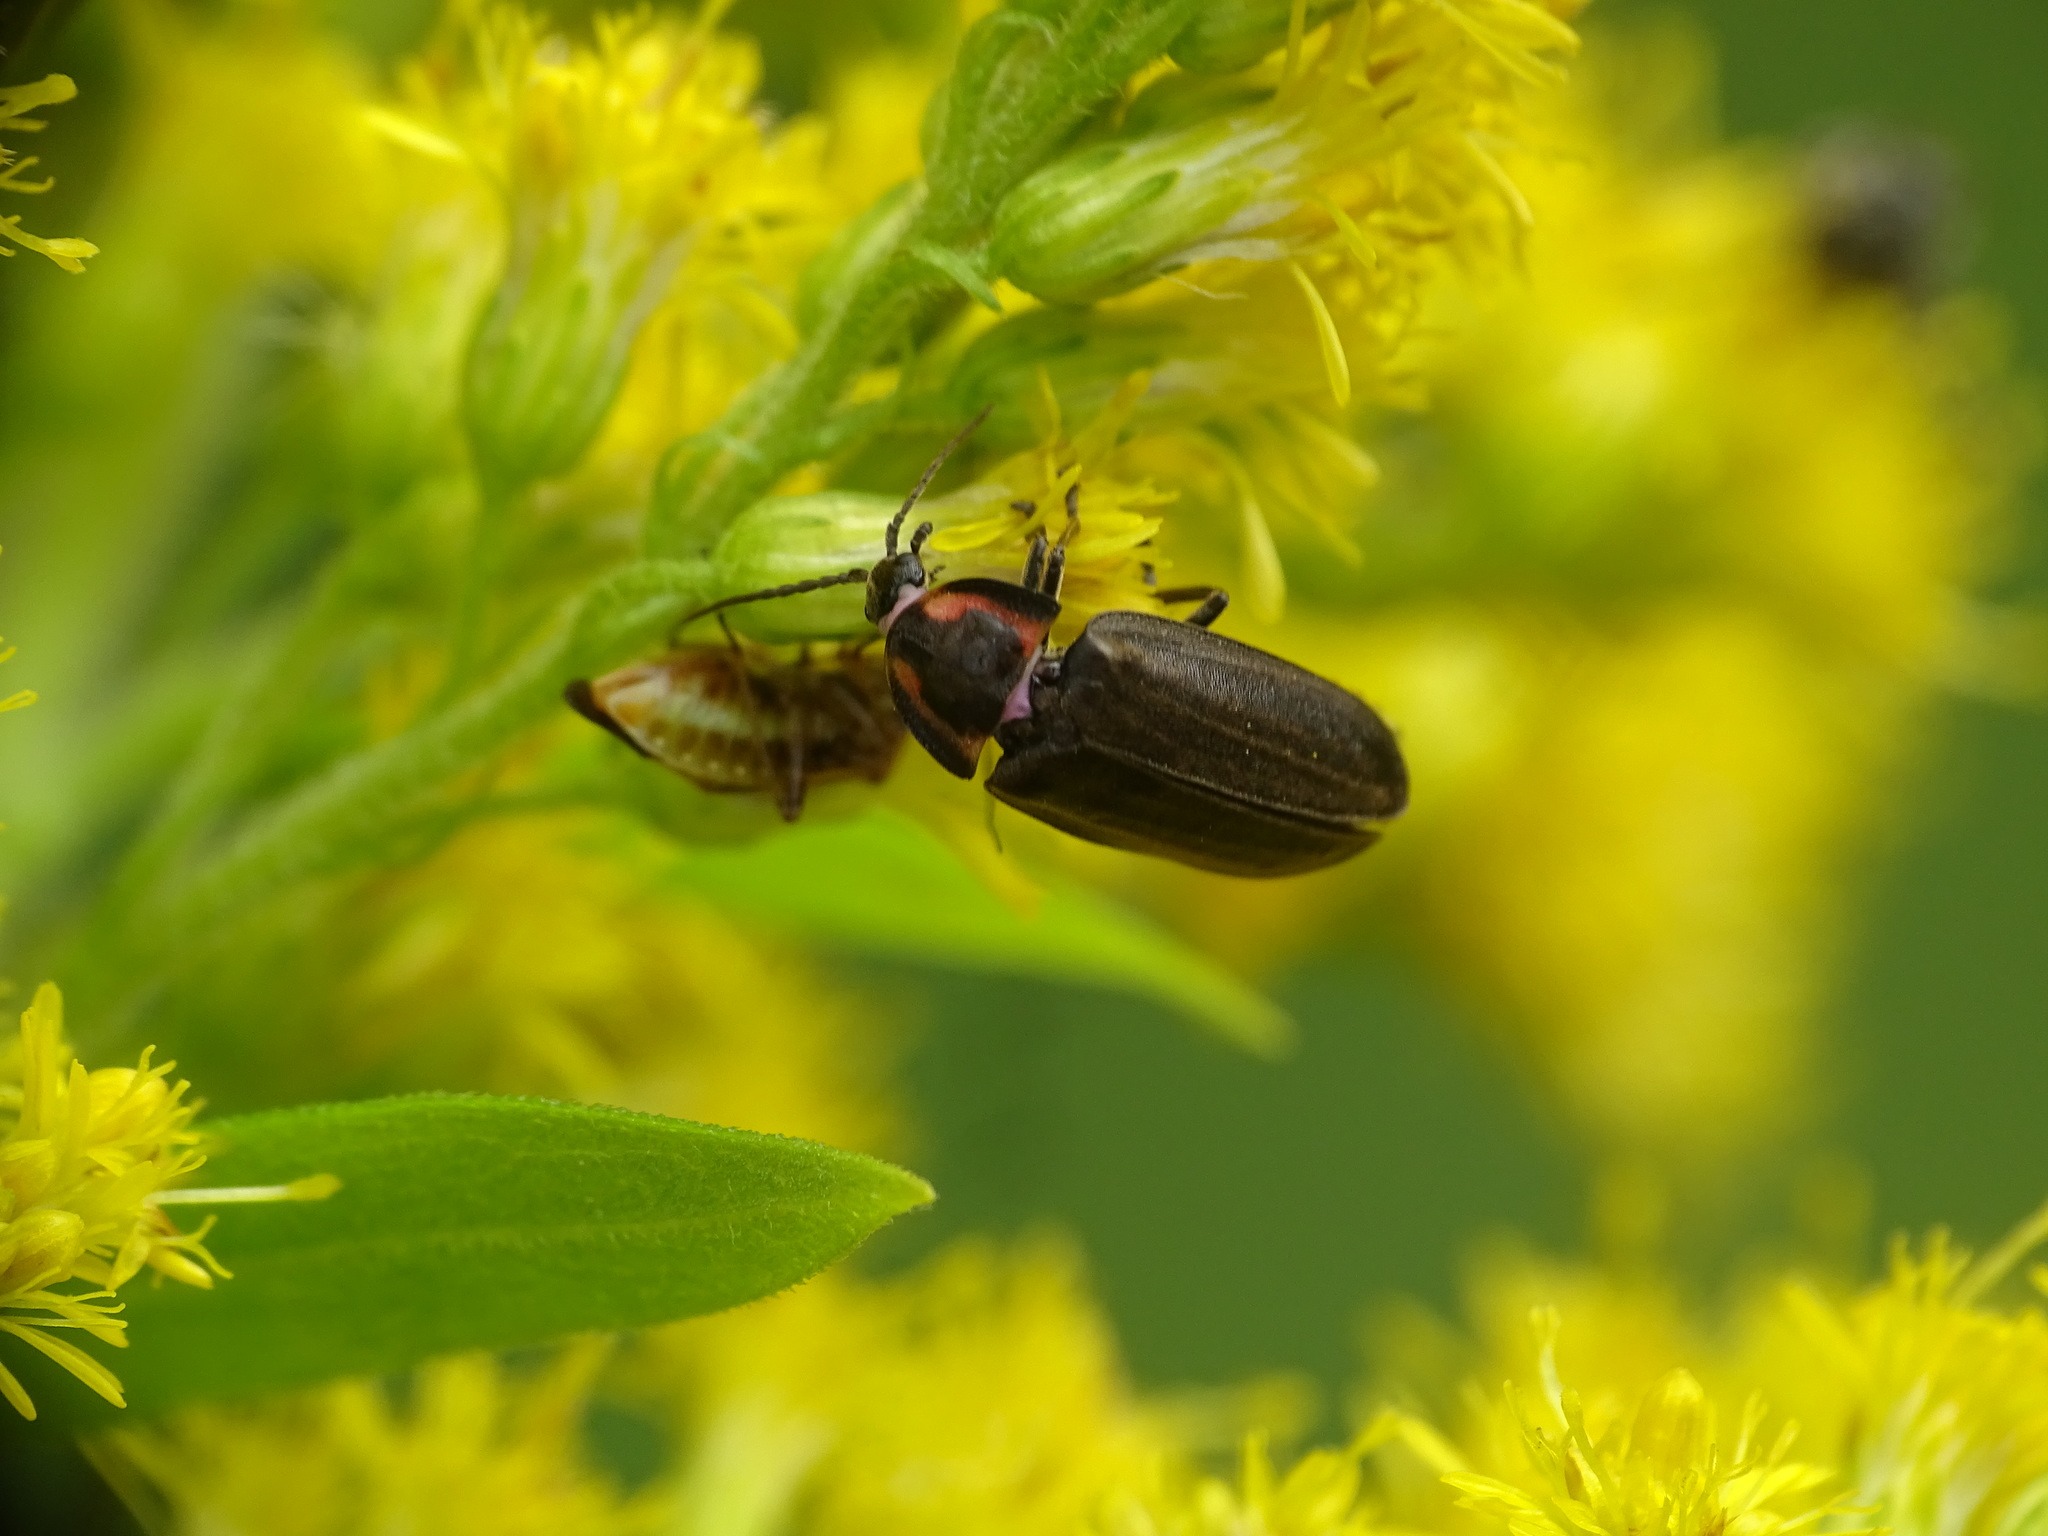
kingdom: Animalia
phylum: Arthropoda
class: Insecta
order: Coleoptera
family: Lampyridae
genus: Photinus
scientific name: Photinus corrusca
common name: Winter firefly
